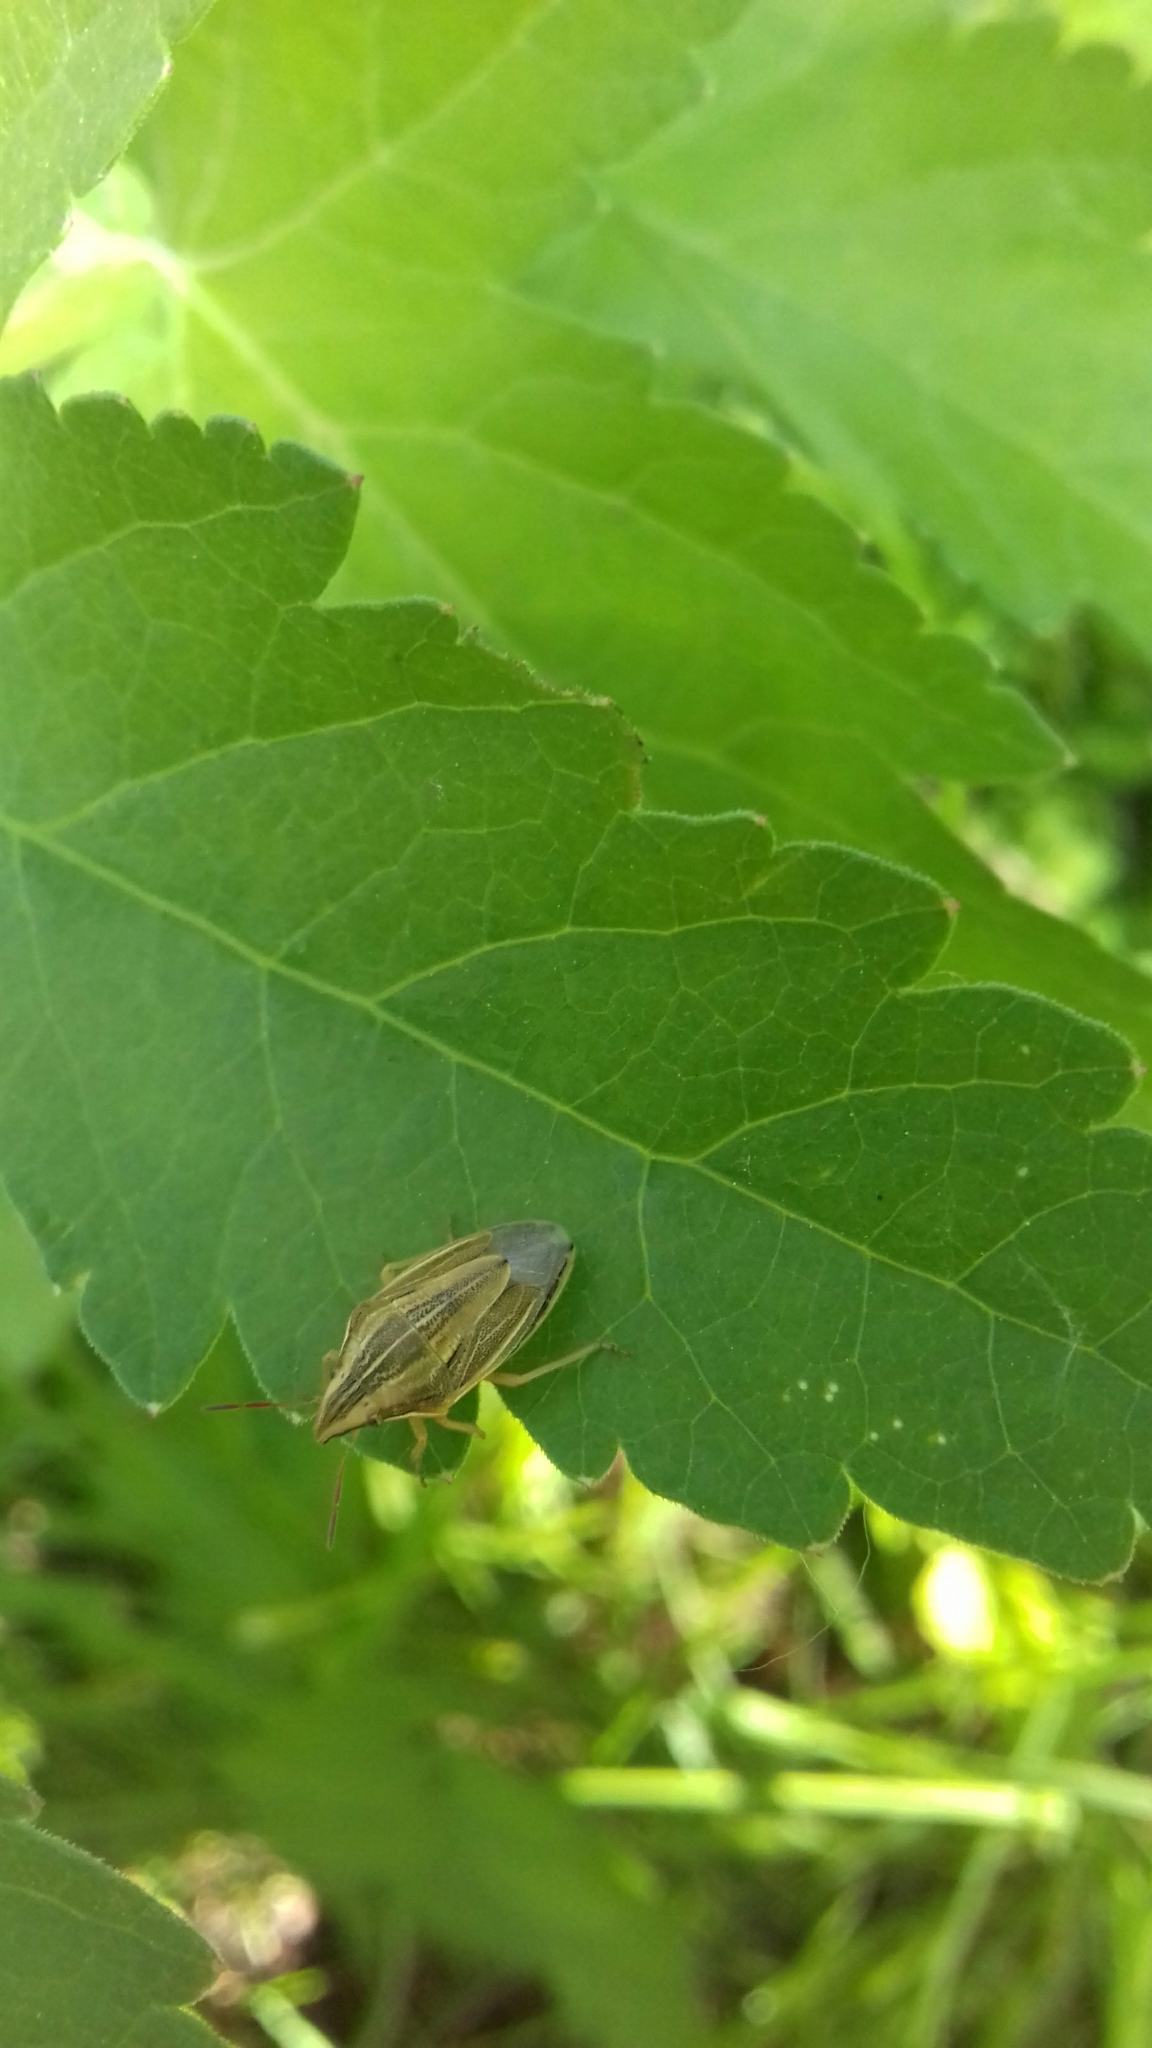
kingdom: Animalia
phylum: Arthropoda
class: Insecta
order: Hemiptera
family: Pentatomidae
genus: Aelia
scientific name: Aelia acuminata
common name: Bishop's mitre
